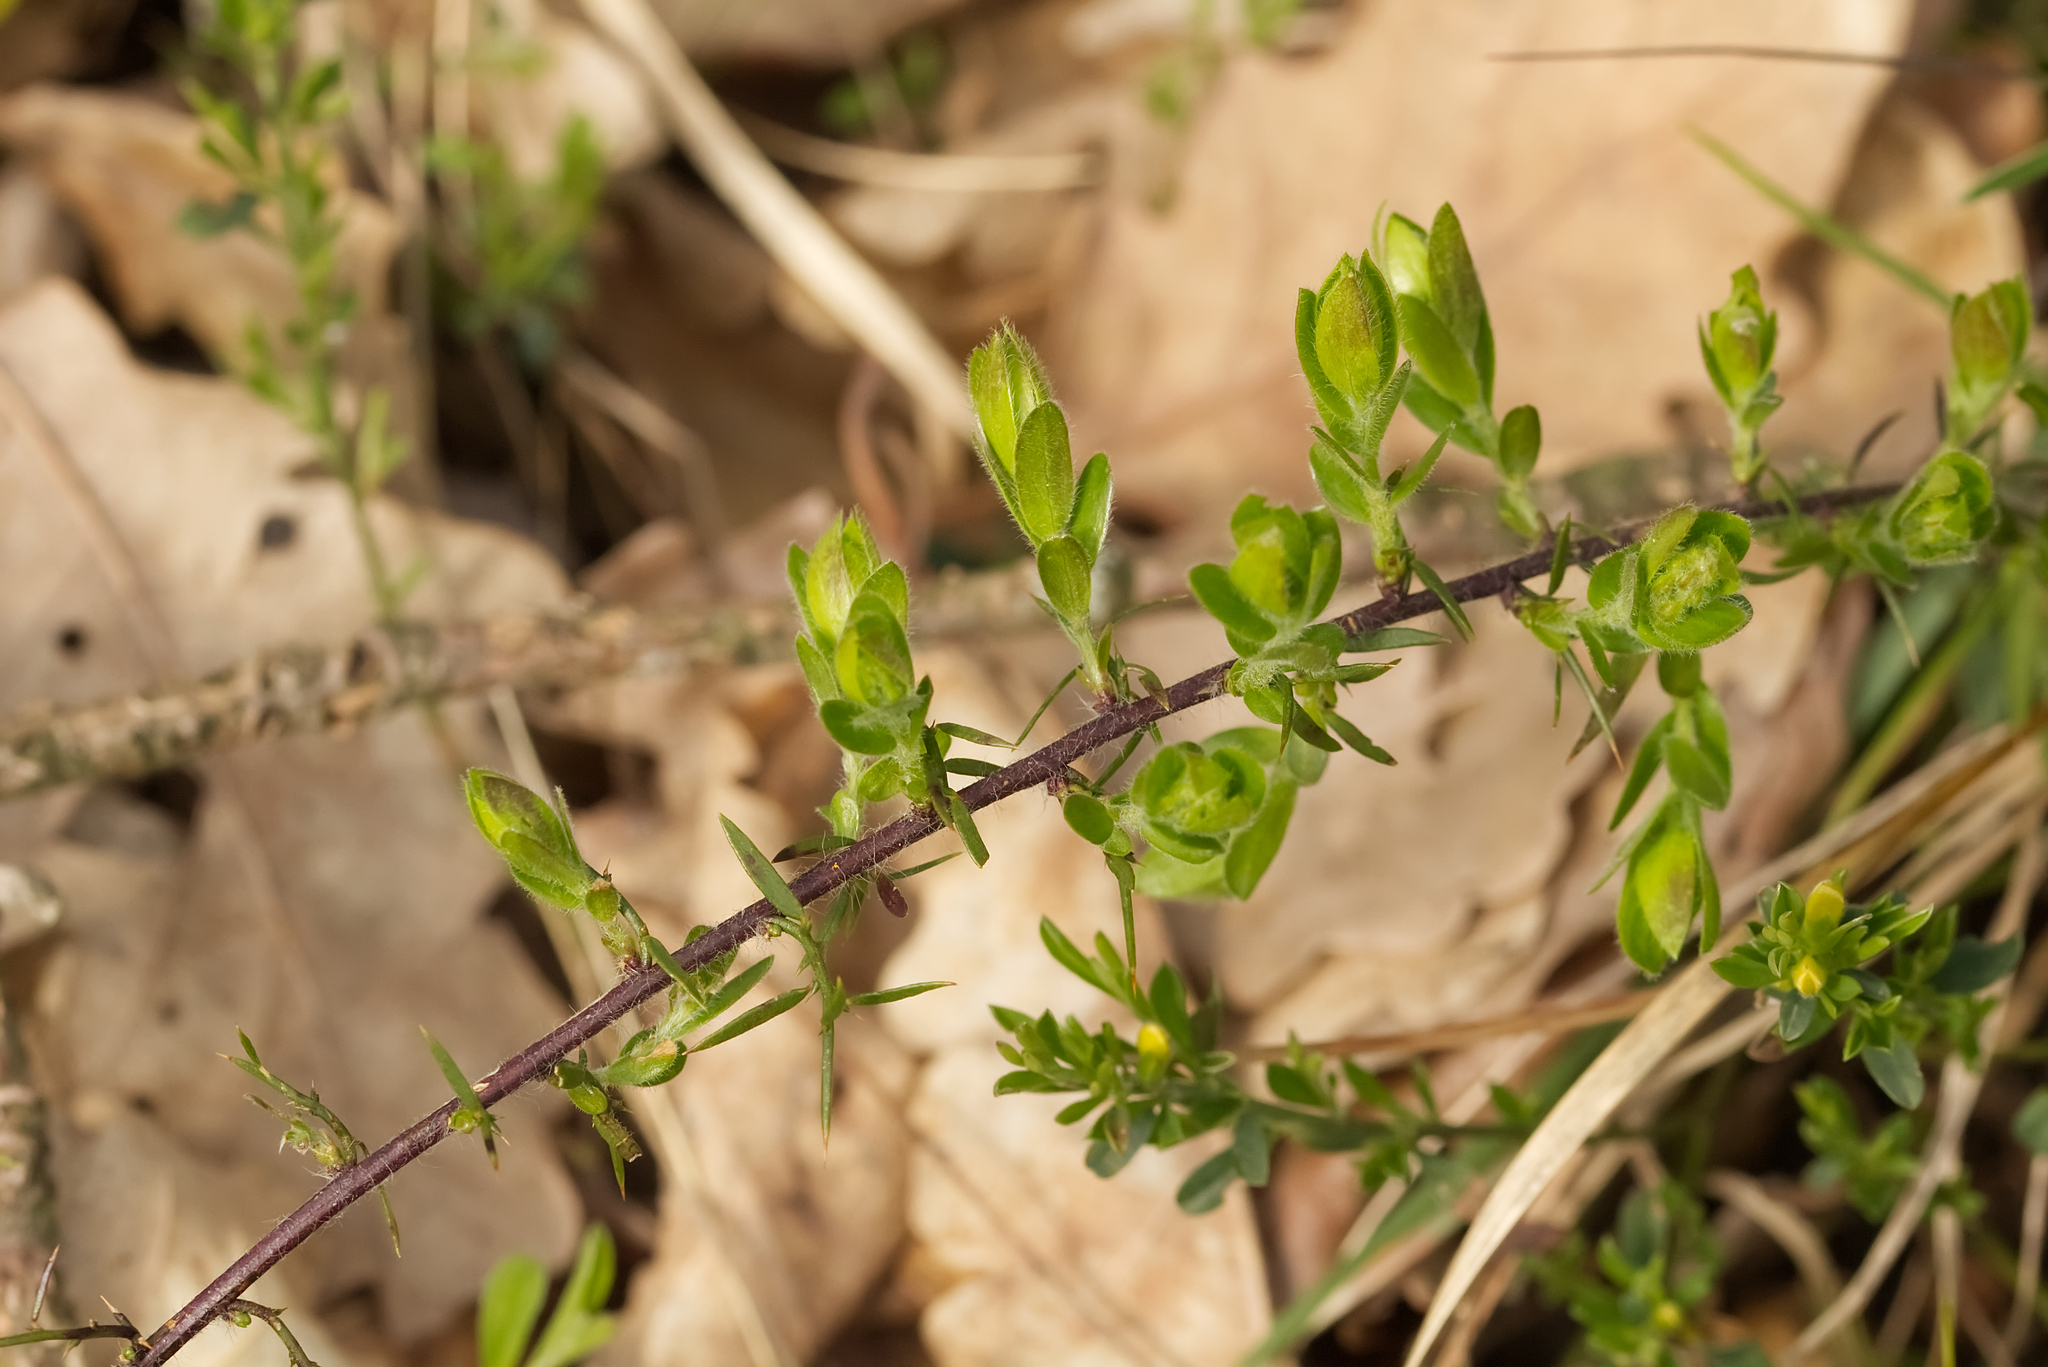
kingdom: Plantae
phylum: Tracheophyta
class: Magnoliopsida
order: Fabales
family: Fabaceae
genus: Genista
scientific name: Genista germanica
